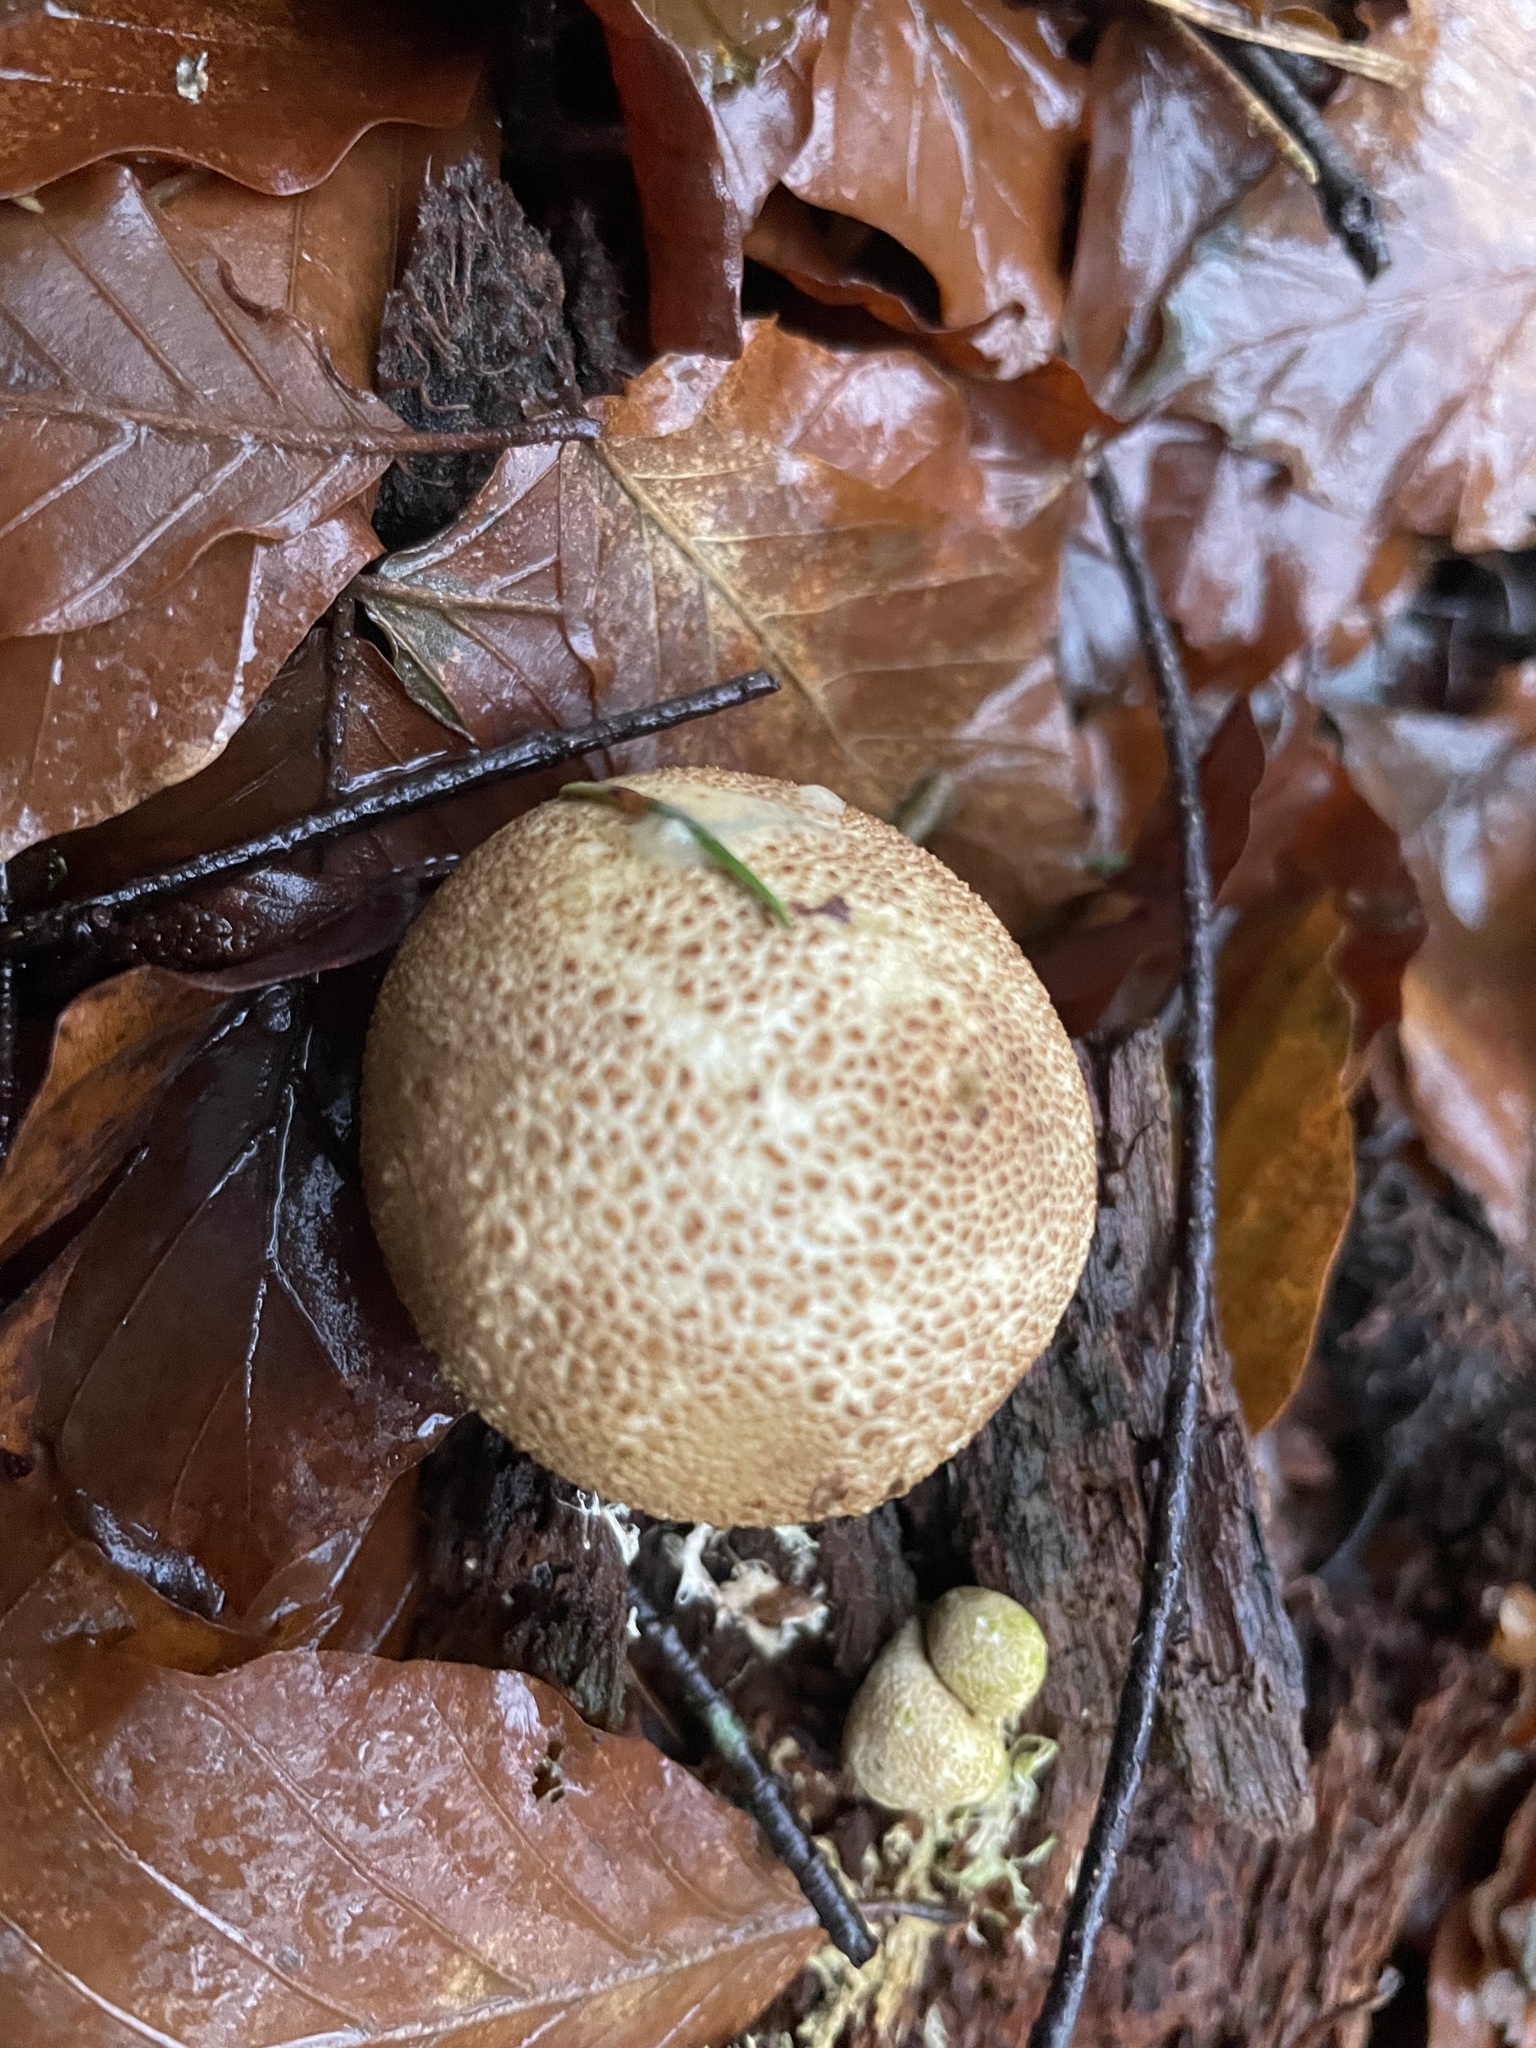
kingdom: Fungi
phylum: Basidiomycota
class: Agaricomycetes
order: Boletales
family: Sclerodermataceae
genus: Scleroderma
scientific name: Scleroderma citrinum
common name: Common earthball
